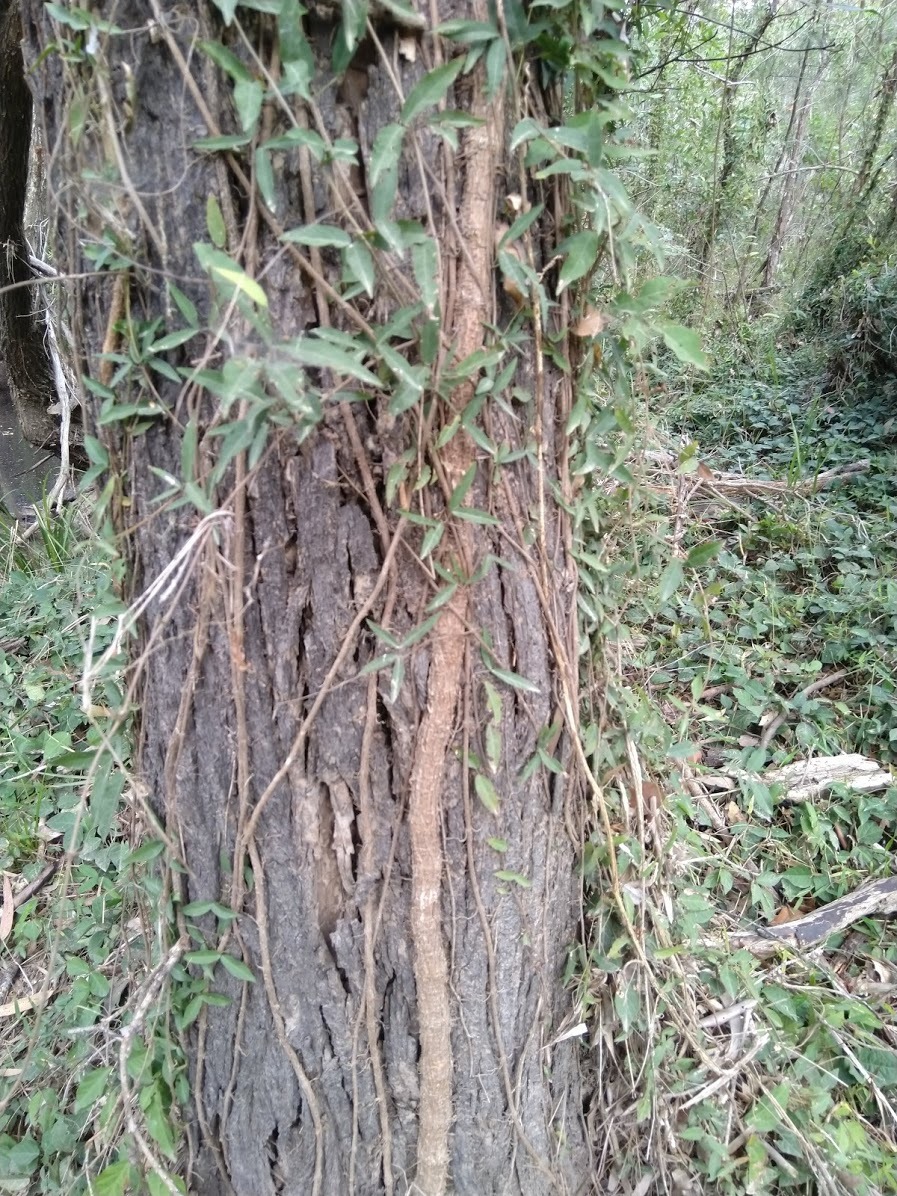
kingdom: Plantae
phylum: Tracheophyta
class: Magnoliopsida
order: Lamiales
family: Bignoniaceae
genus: Dolichandra
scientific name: Dolichandra unguis-cati
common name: Catclaw vine
